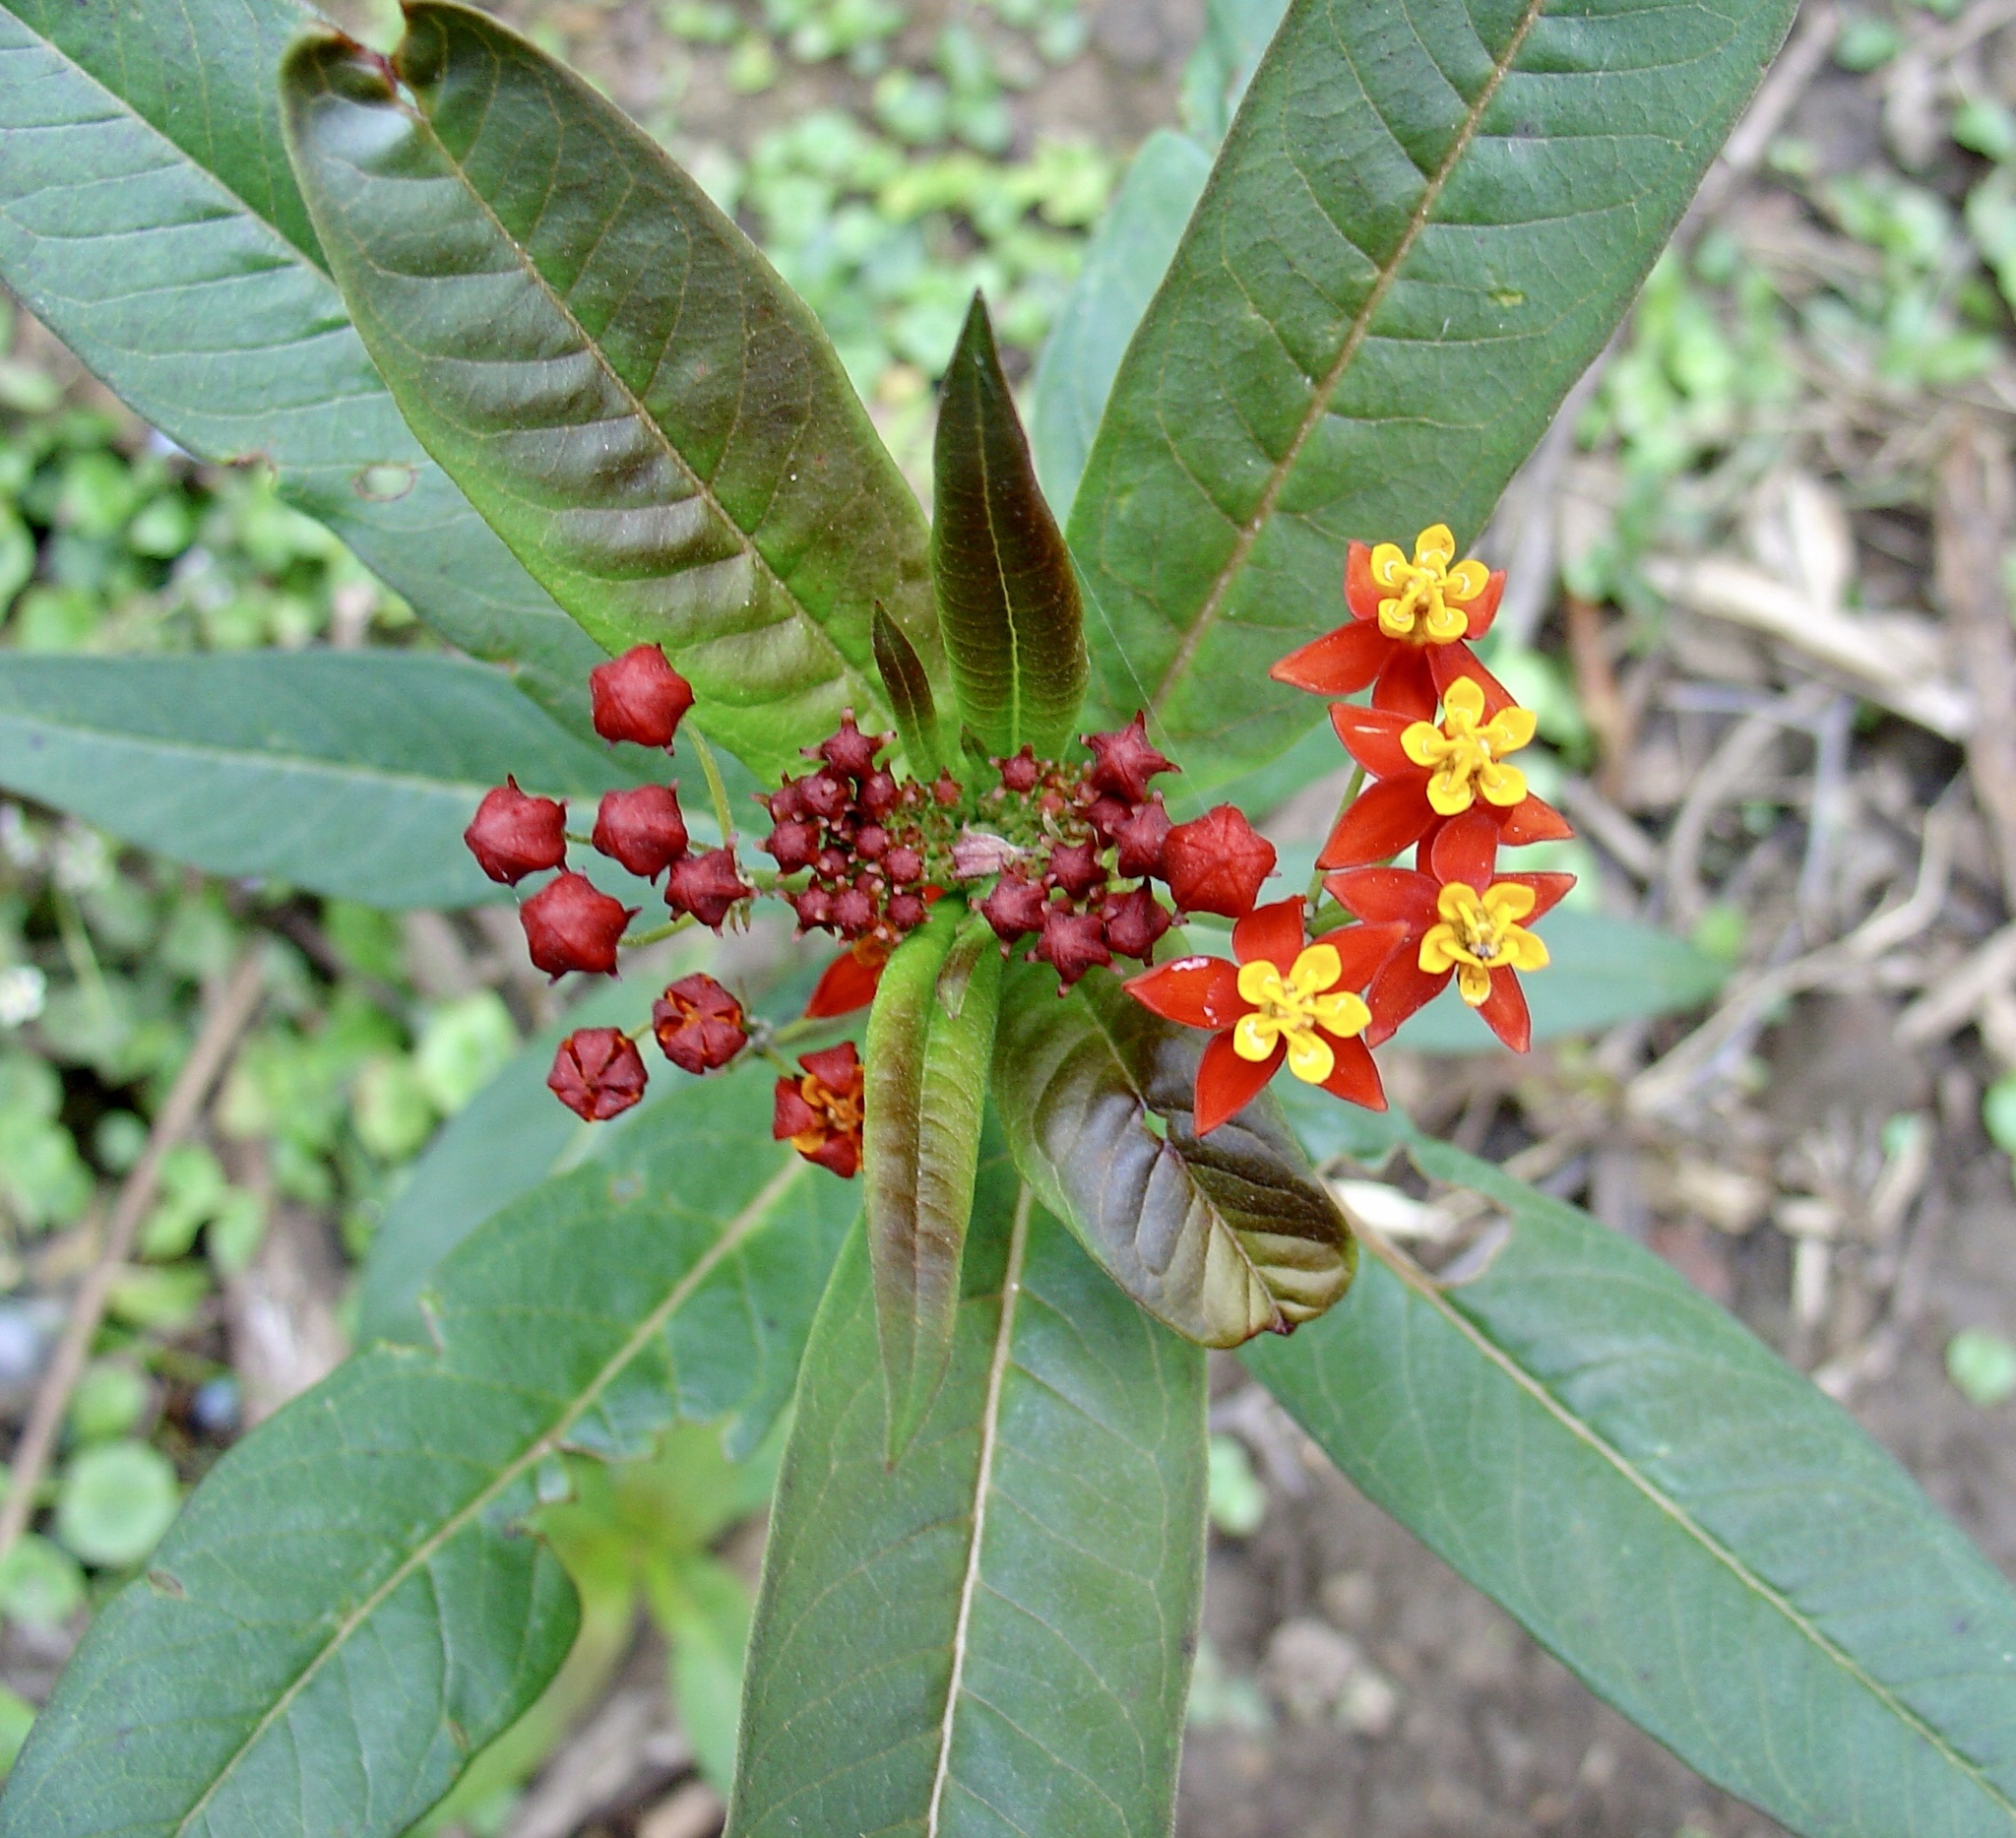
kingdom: Plantae
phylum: Tracheophyta
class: Magnoliopsida
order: Gentianales
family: Apocynaceae
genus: Asclepias
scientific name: Asclepias curassavica
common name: Bloodflower
